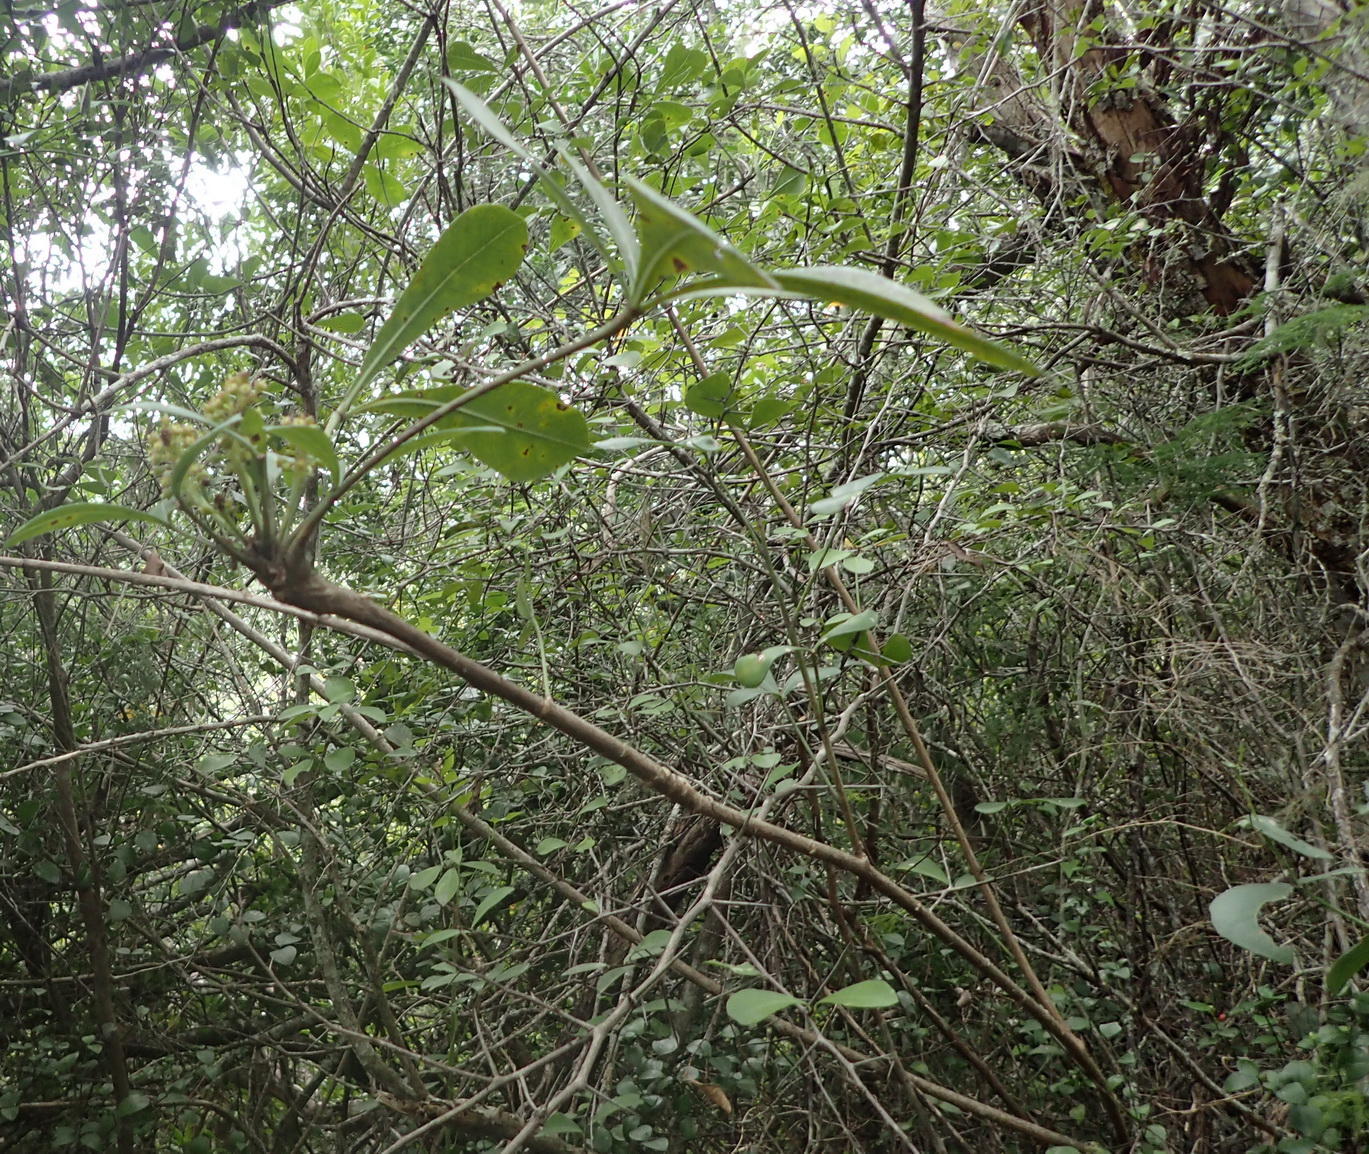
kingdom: Plantae
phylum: Tracheophyta
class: Magnoliopsida
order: Apiales
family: Araliaceae
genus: Cussonia
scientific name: Cussonia thyrsiflora
